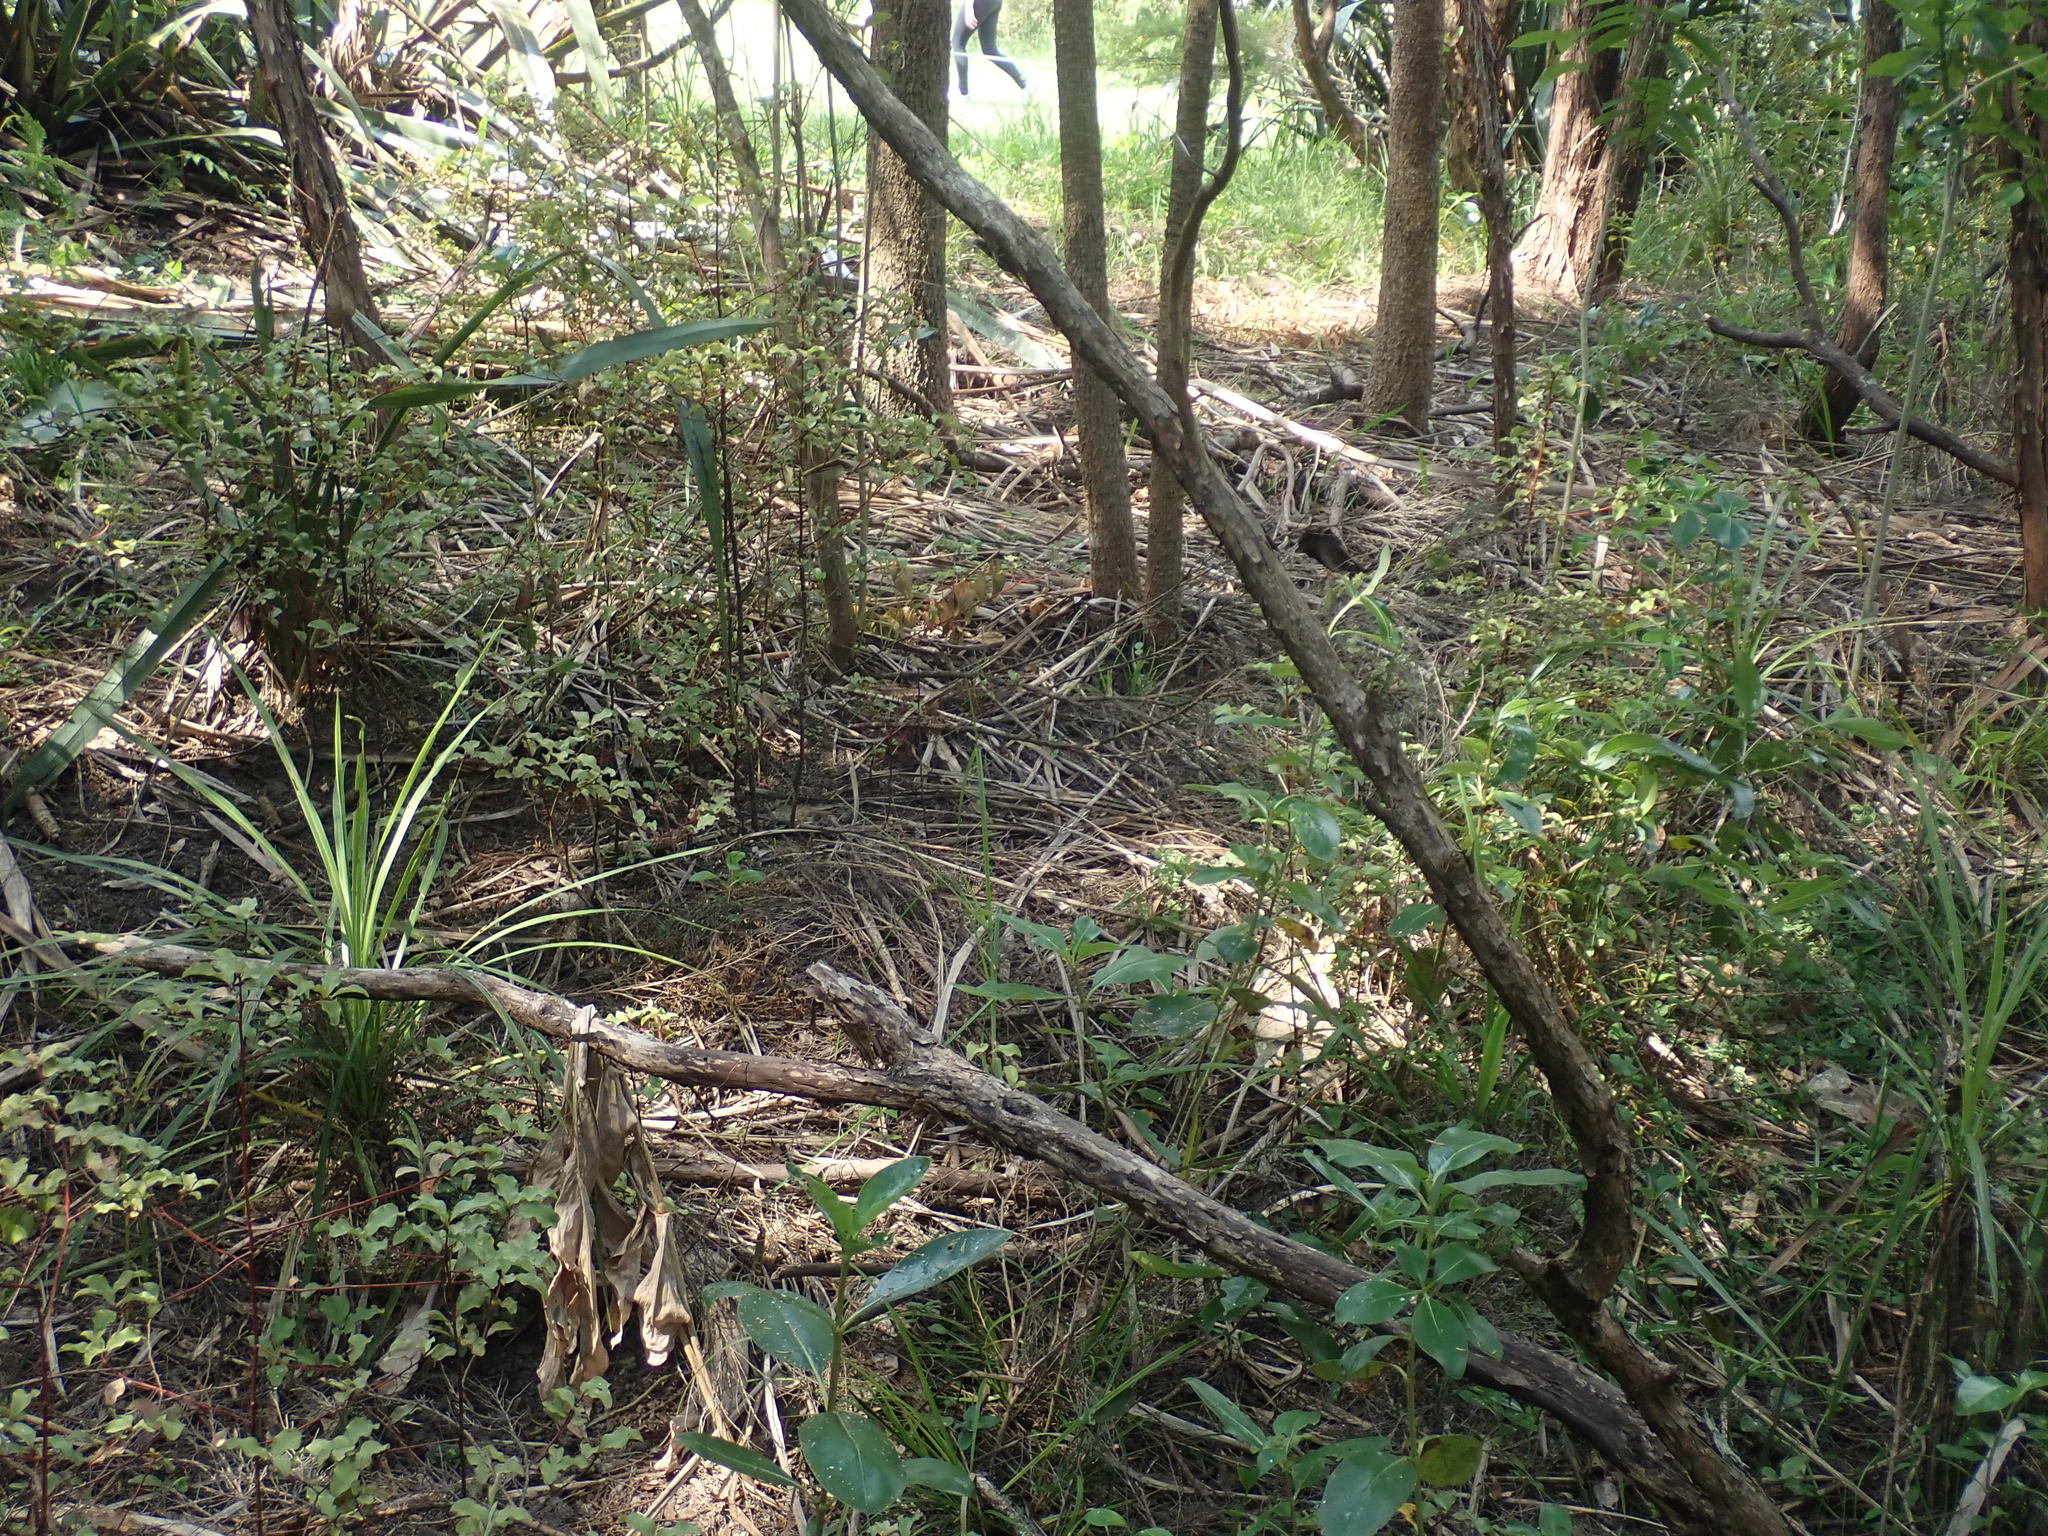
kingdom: Plantae
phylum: Tracheophyta
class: Magnoliopsida
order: Ericales
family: Primulaceae
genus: Myrsine
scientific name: Myrsine australis
